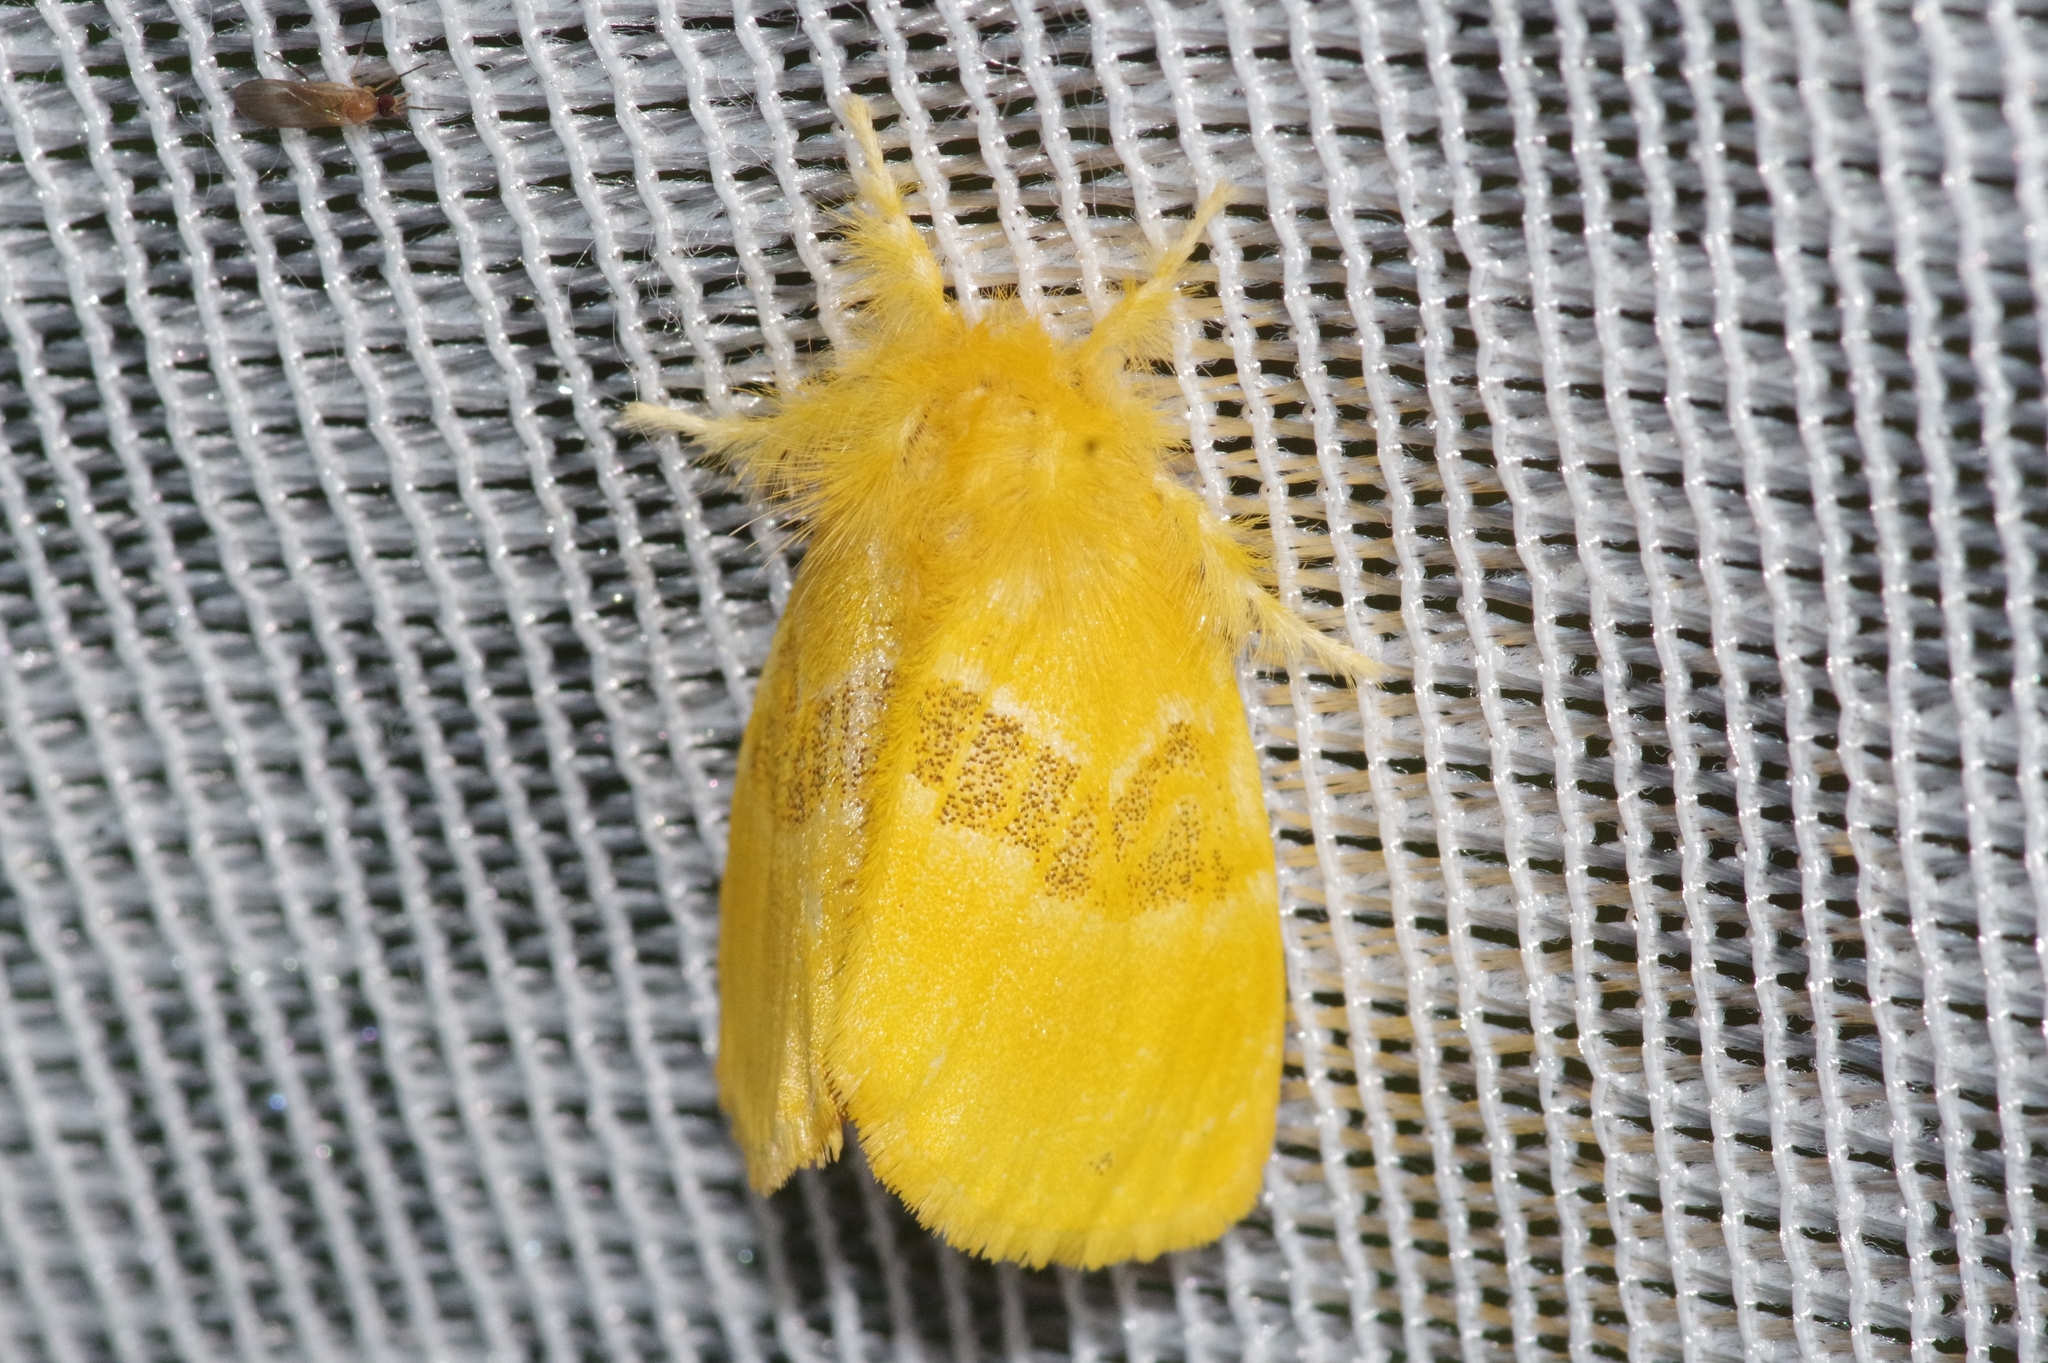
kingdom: Animalia
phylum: Arthropoda
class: Insecta
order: Lepidoptera
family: Erebidae
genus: Artaxa
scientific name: Artaxa subflava
